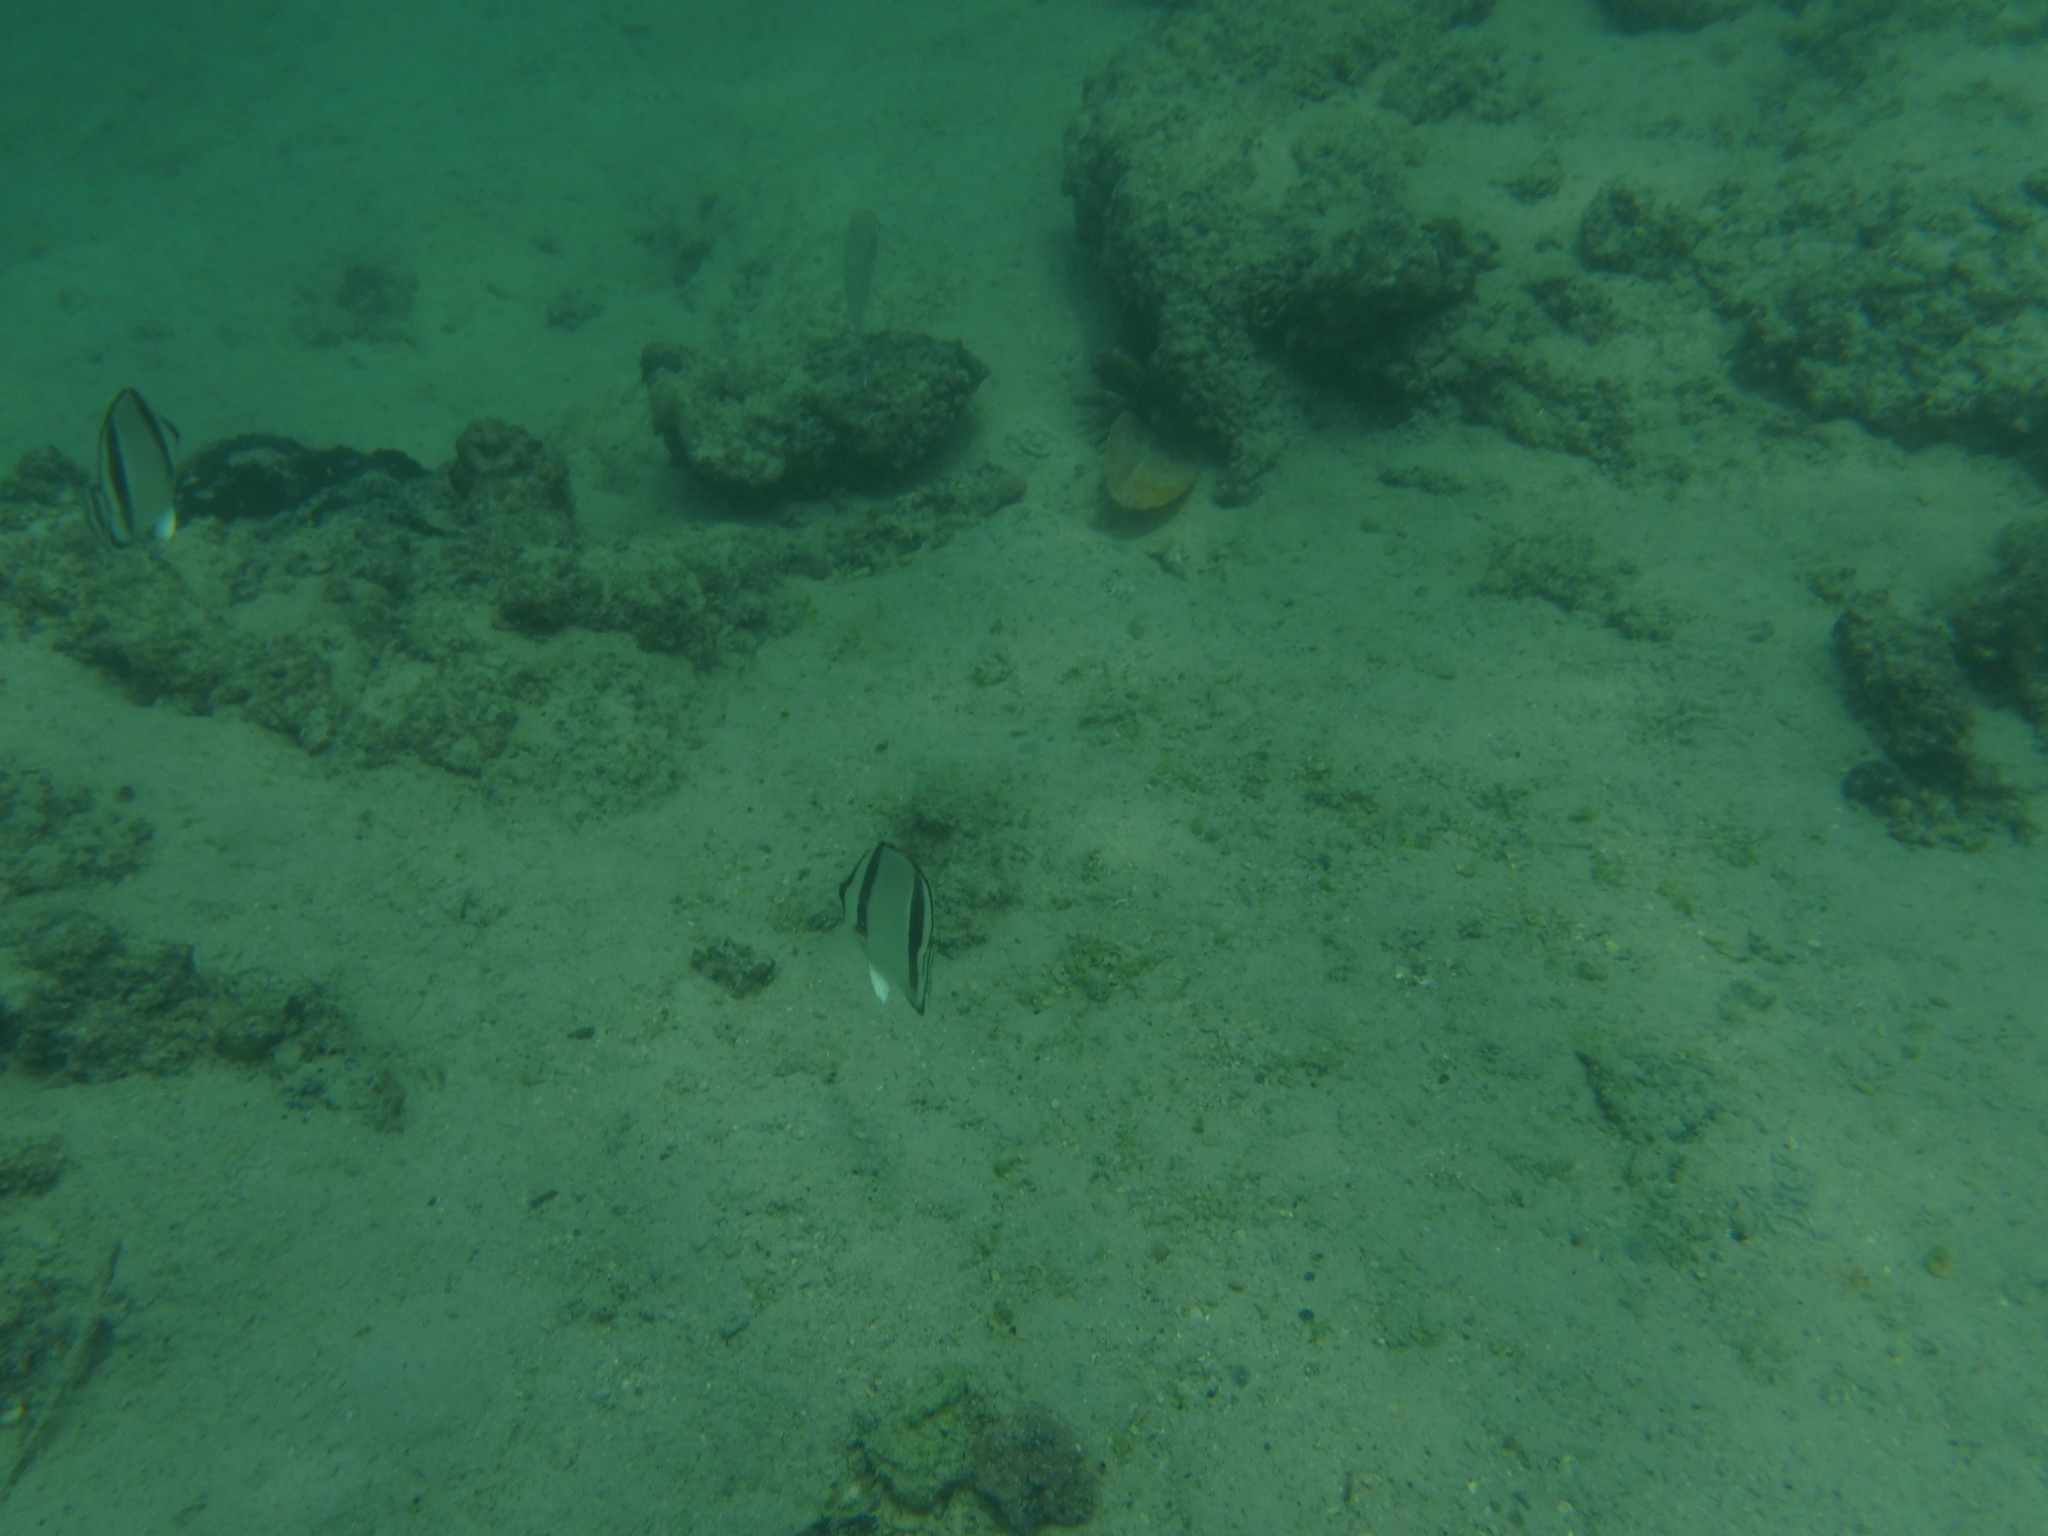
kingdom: Animalia
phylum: Chordata
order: Perciformes
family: Chaetodontidae
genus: Chaetodon
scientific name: Chaetodon humeralis
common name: Threebanded butterflyfish
